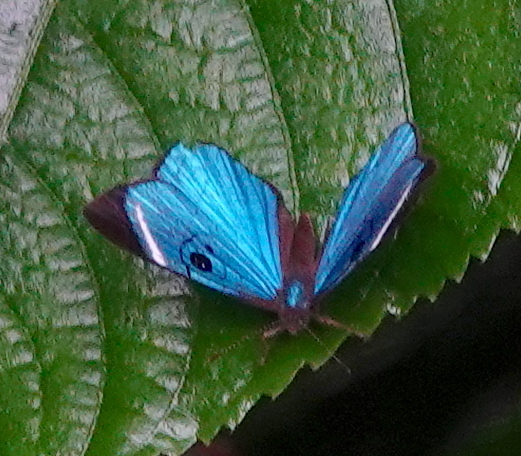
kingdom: Animalia
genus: Mesosemia
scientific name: Mesosemia loruhama
